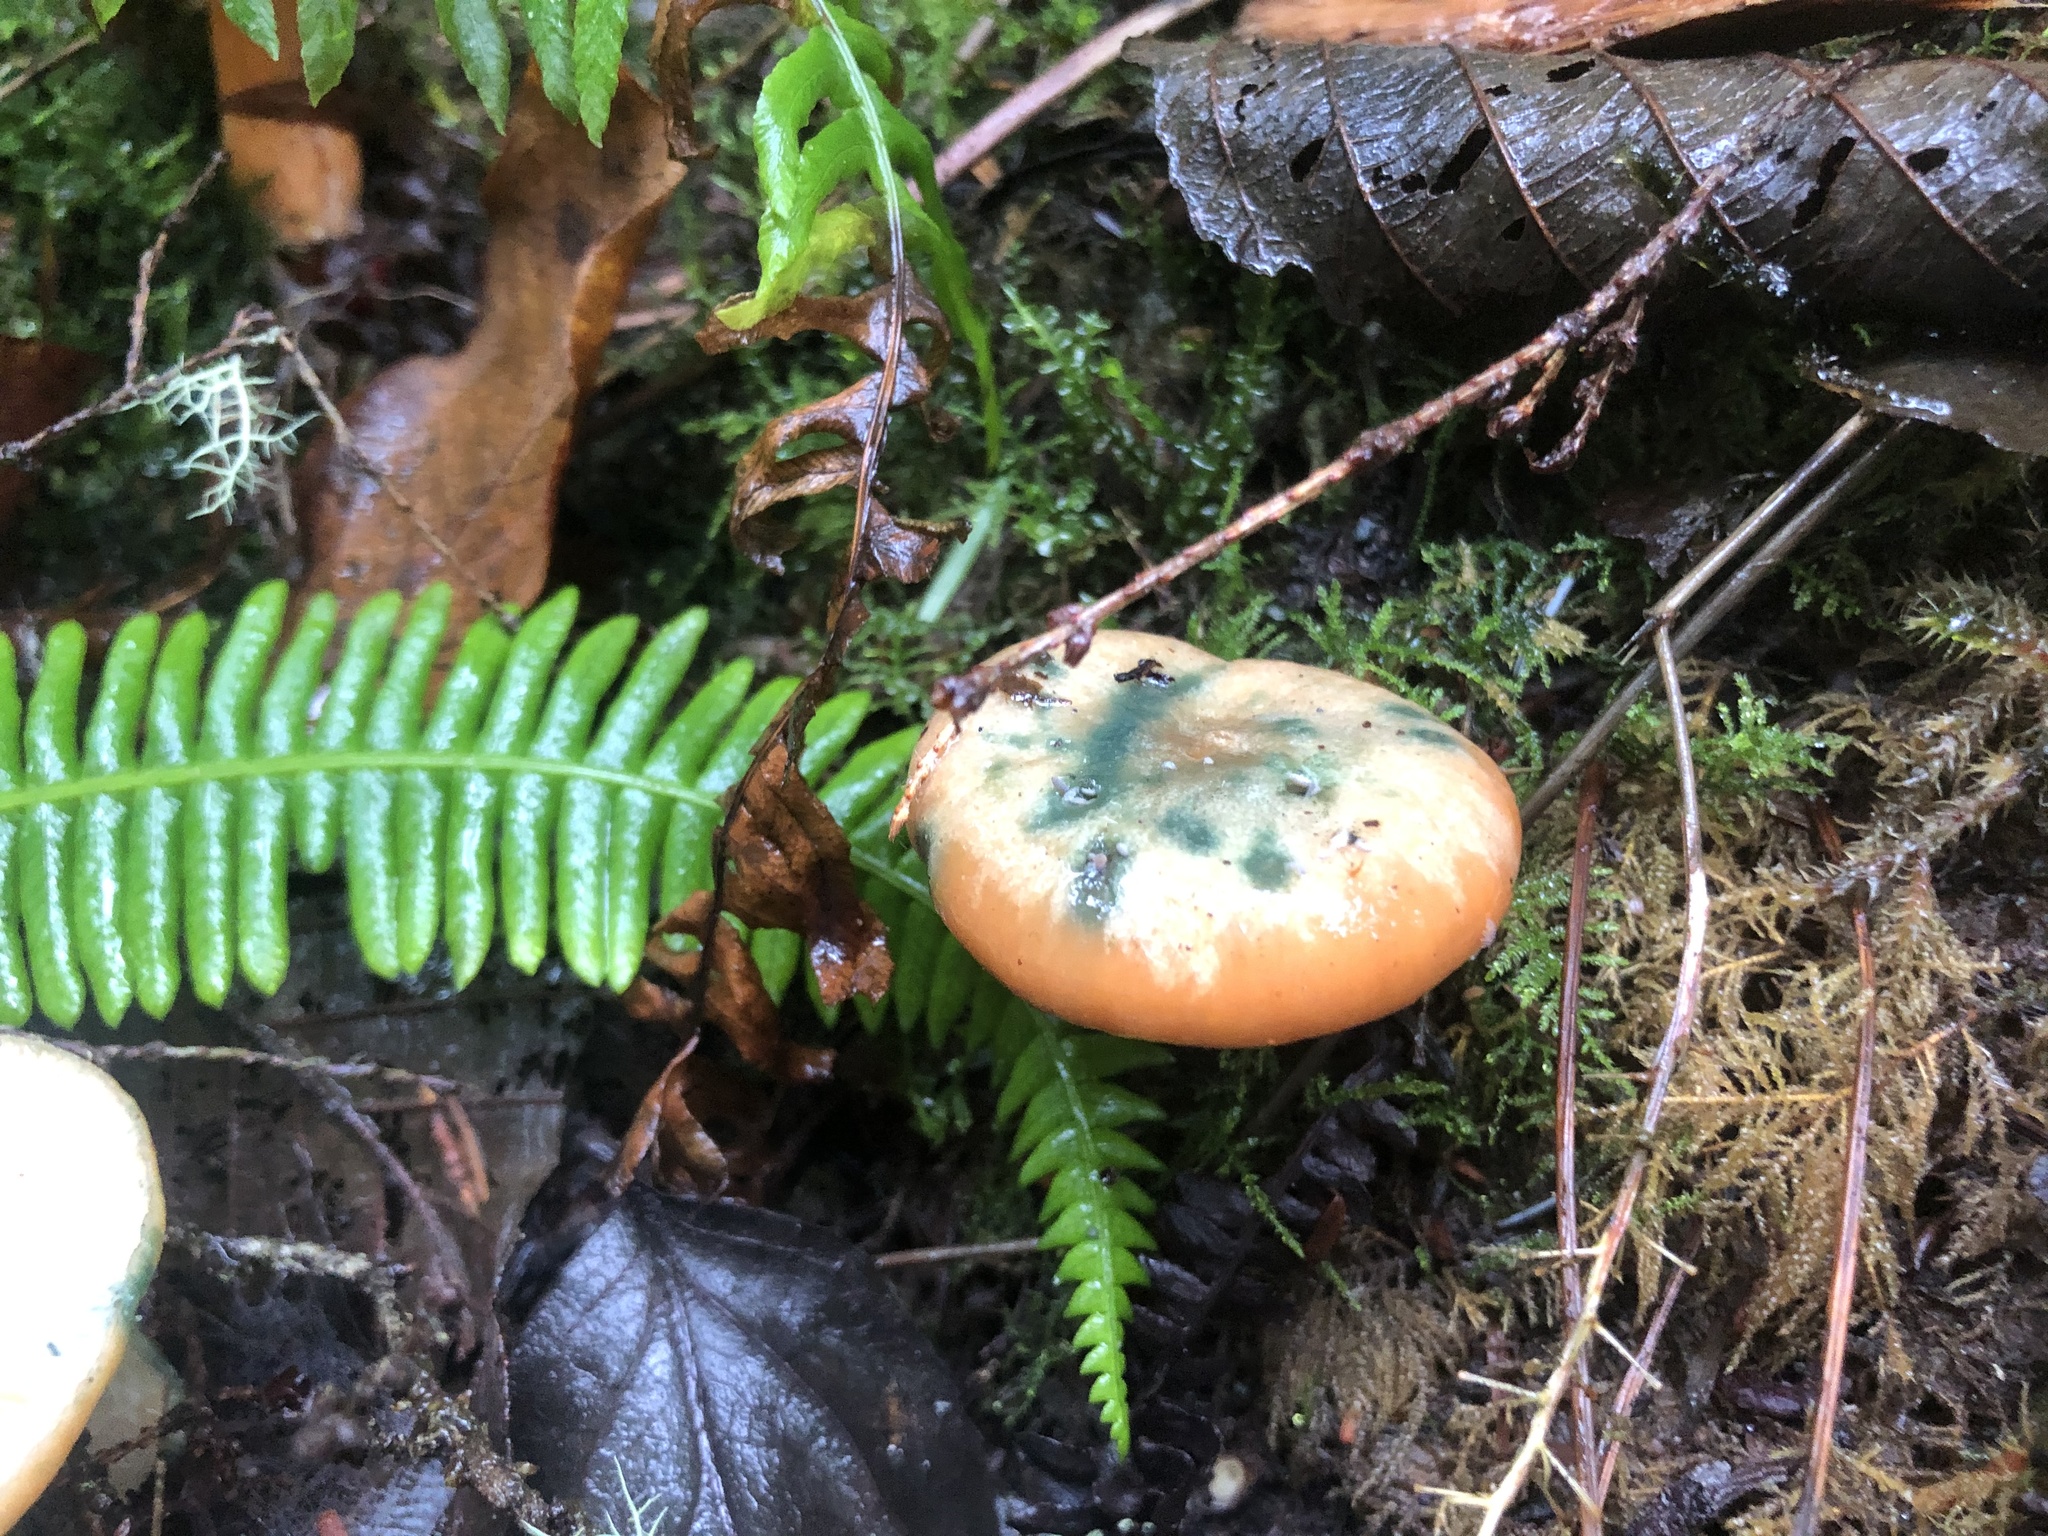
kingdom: Fungi
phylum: Basidiomycota
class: Agaricomycetes
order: Russulales
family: Russulaceae
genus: Lactarius
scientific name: Lactarius deliciosus
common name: Saffron milk-cap
